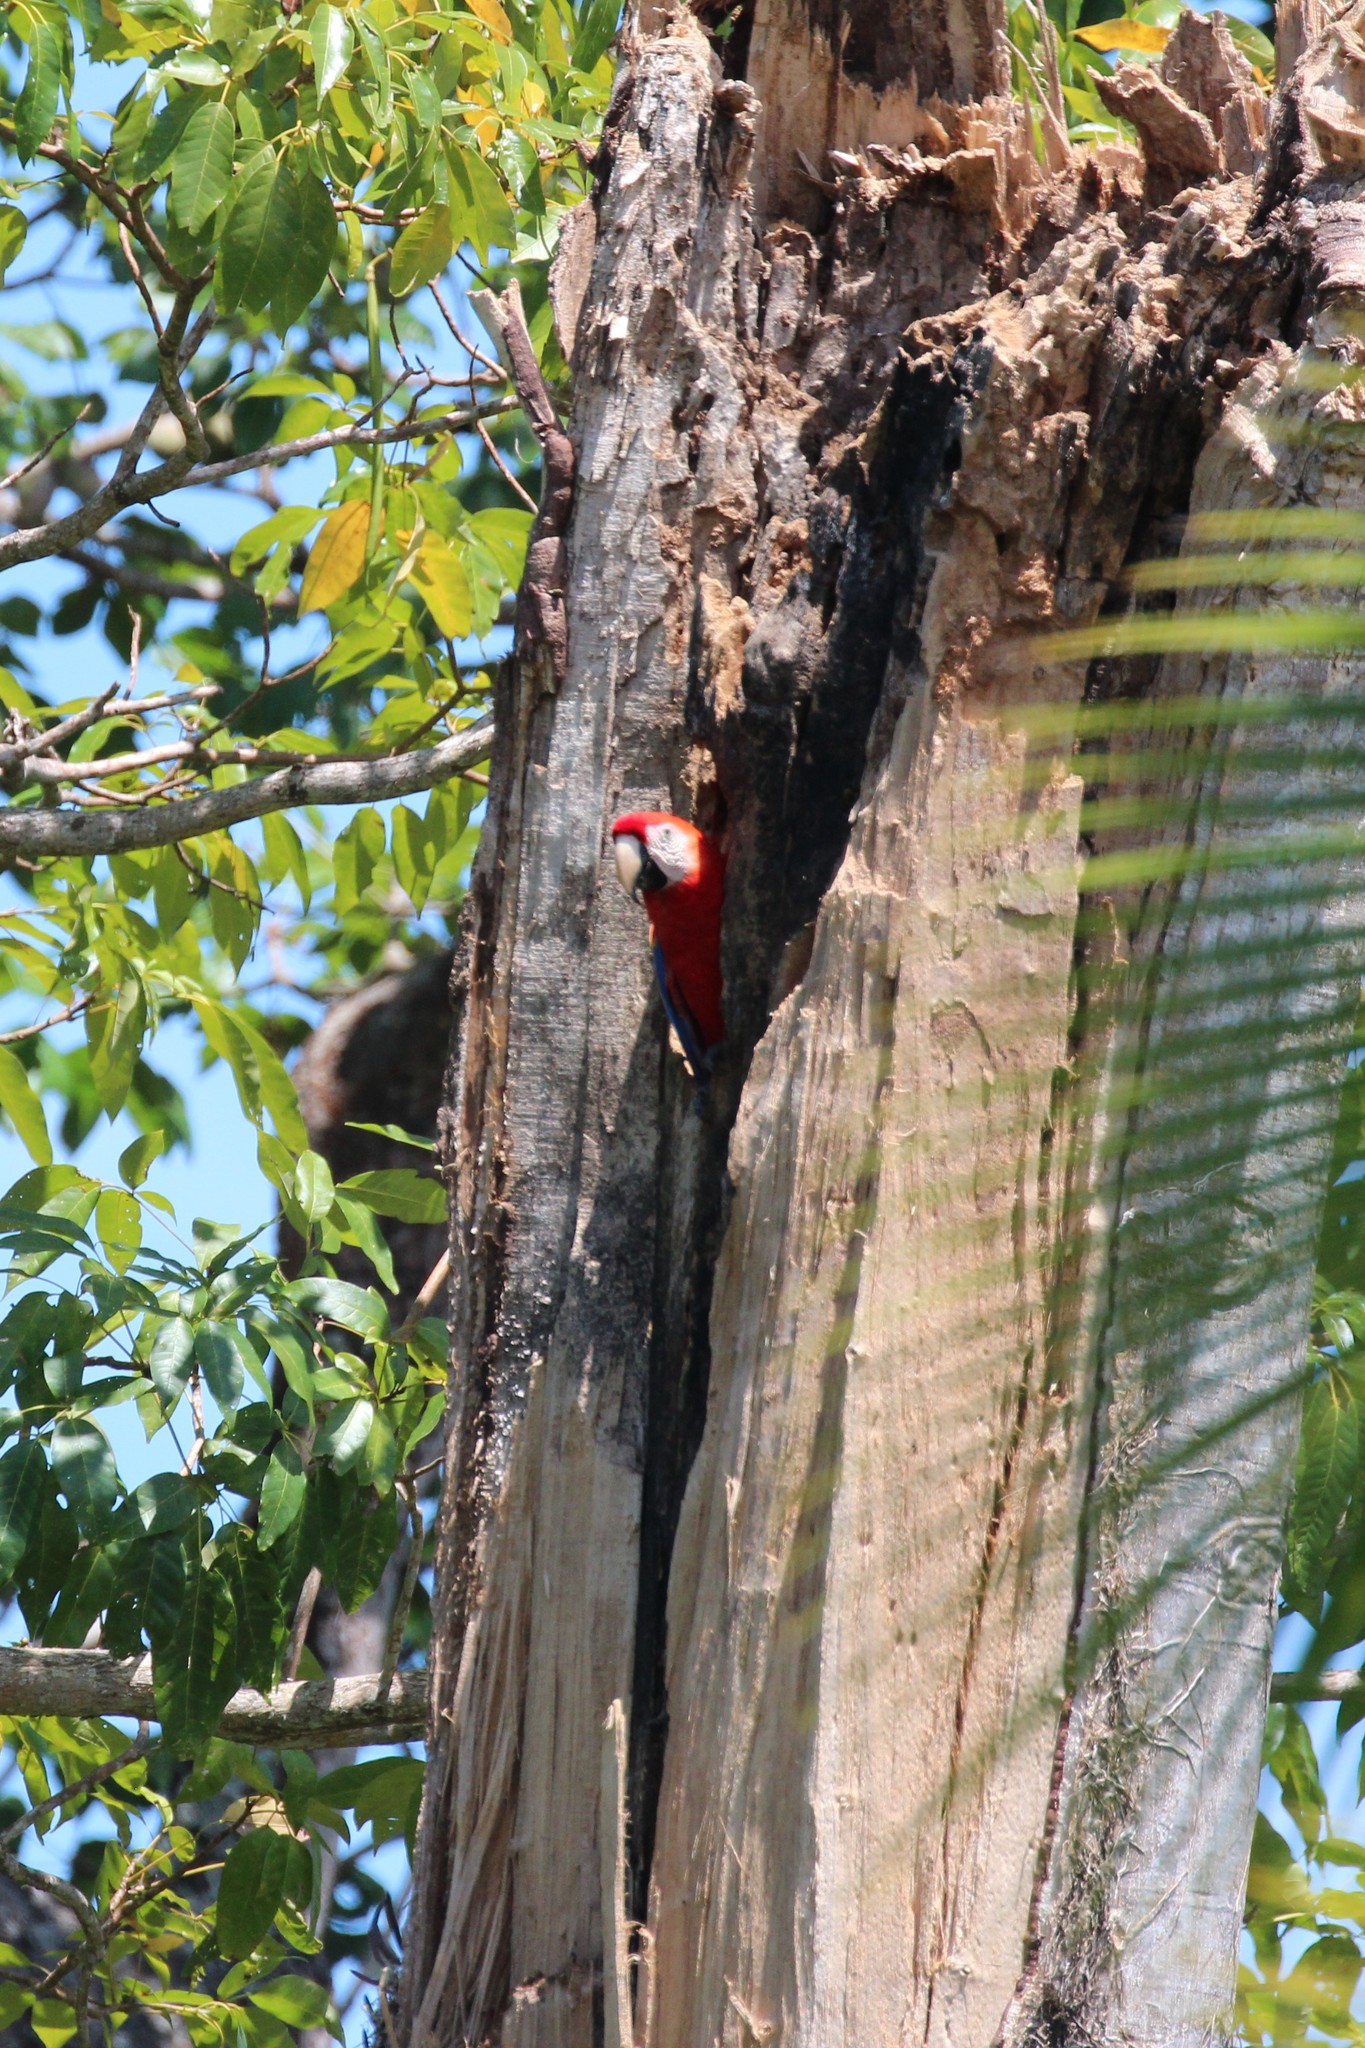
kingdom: Animalia
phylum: Chordata
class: Aves
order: Psittaciformes
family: Psittacidae
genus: Ara
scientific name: Ara macao
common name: Scarlet macaw
